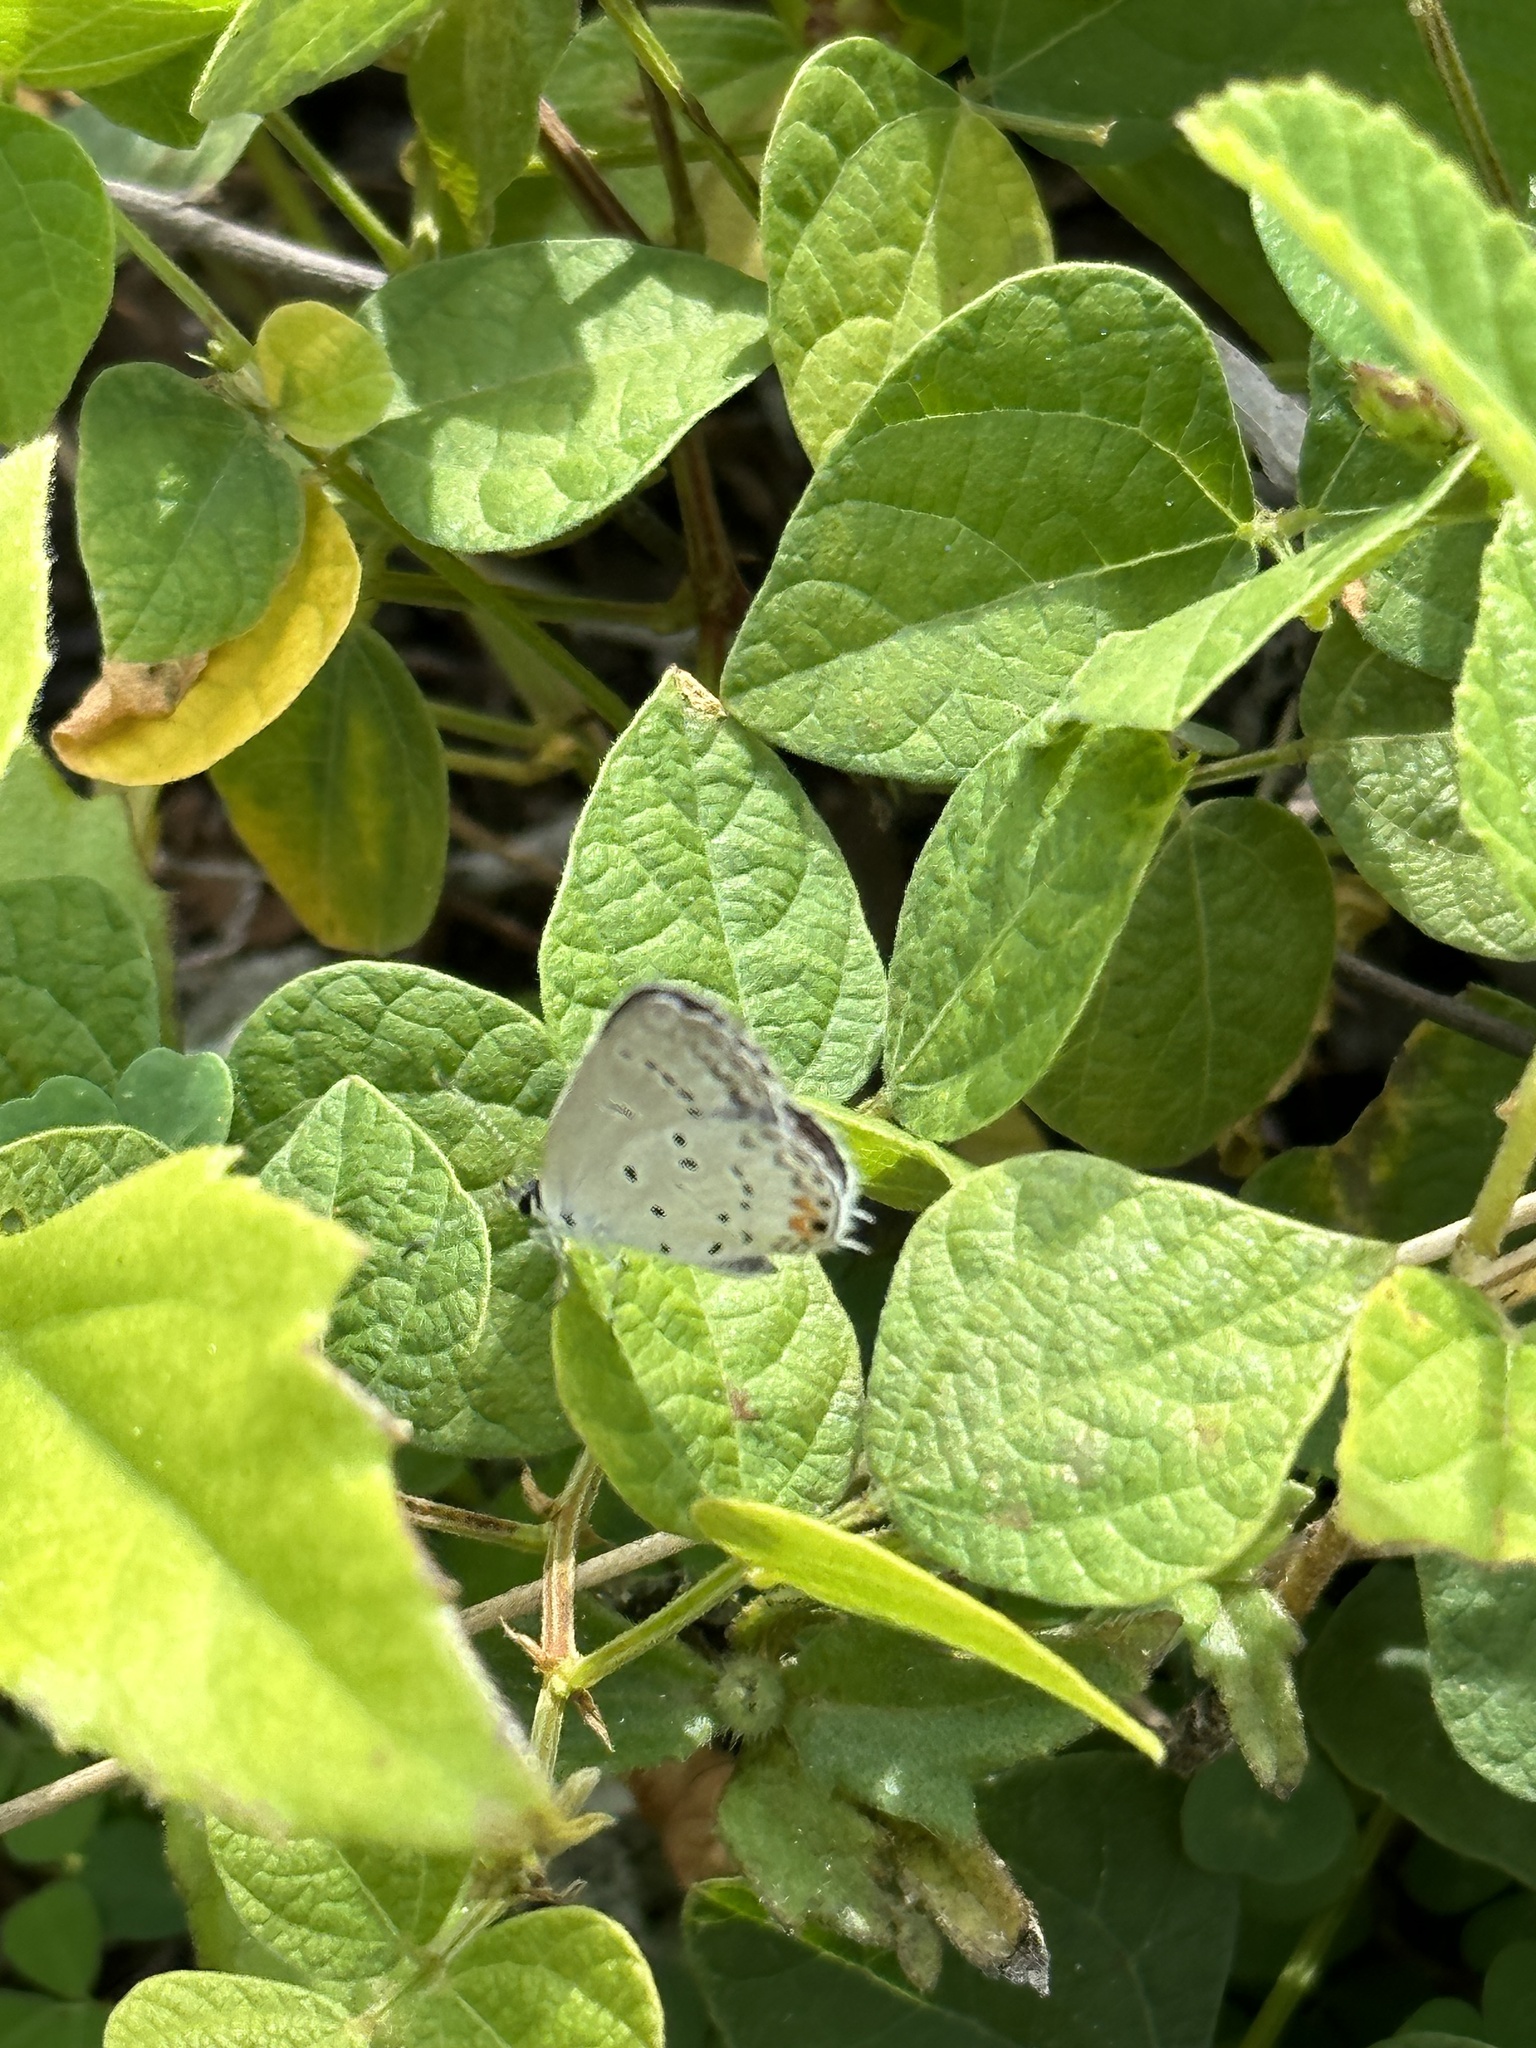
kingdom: Animalia
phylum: Arthropoda
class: Insecta
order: Lepidoptera
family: Lycaenidae
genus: Elkalyce
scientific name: Elkalyce comyntas
